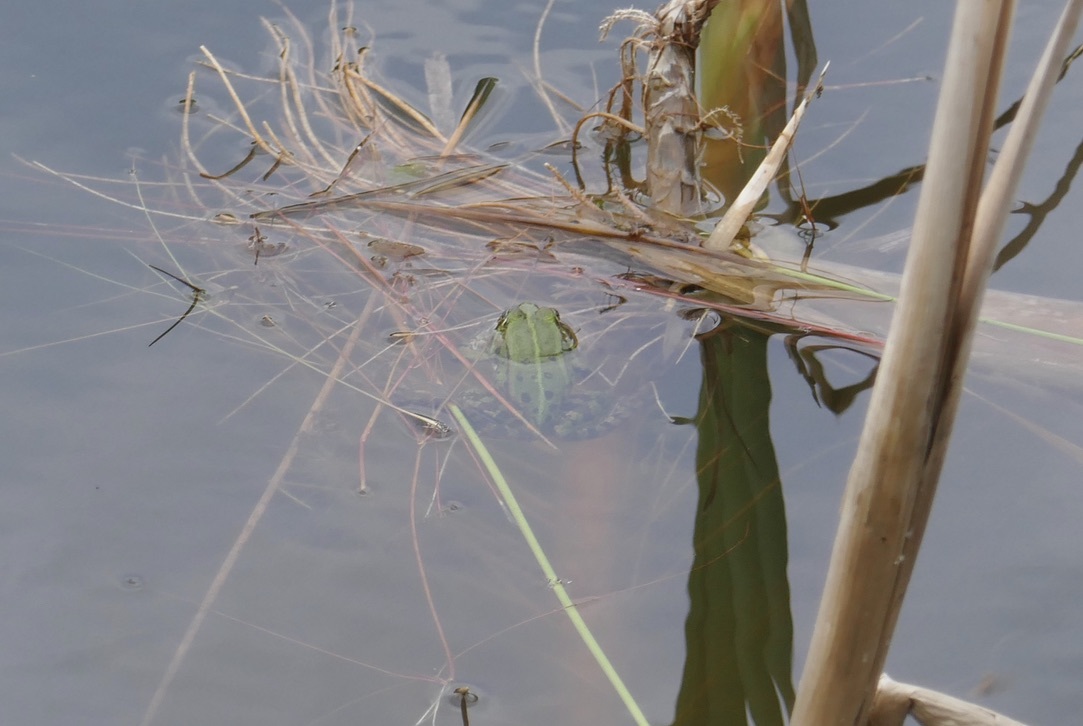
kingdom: Animalia
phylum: Chordata
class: Amphibia
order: Anura
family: Ranidae
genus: Pelophylax
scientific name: Pelophylax
